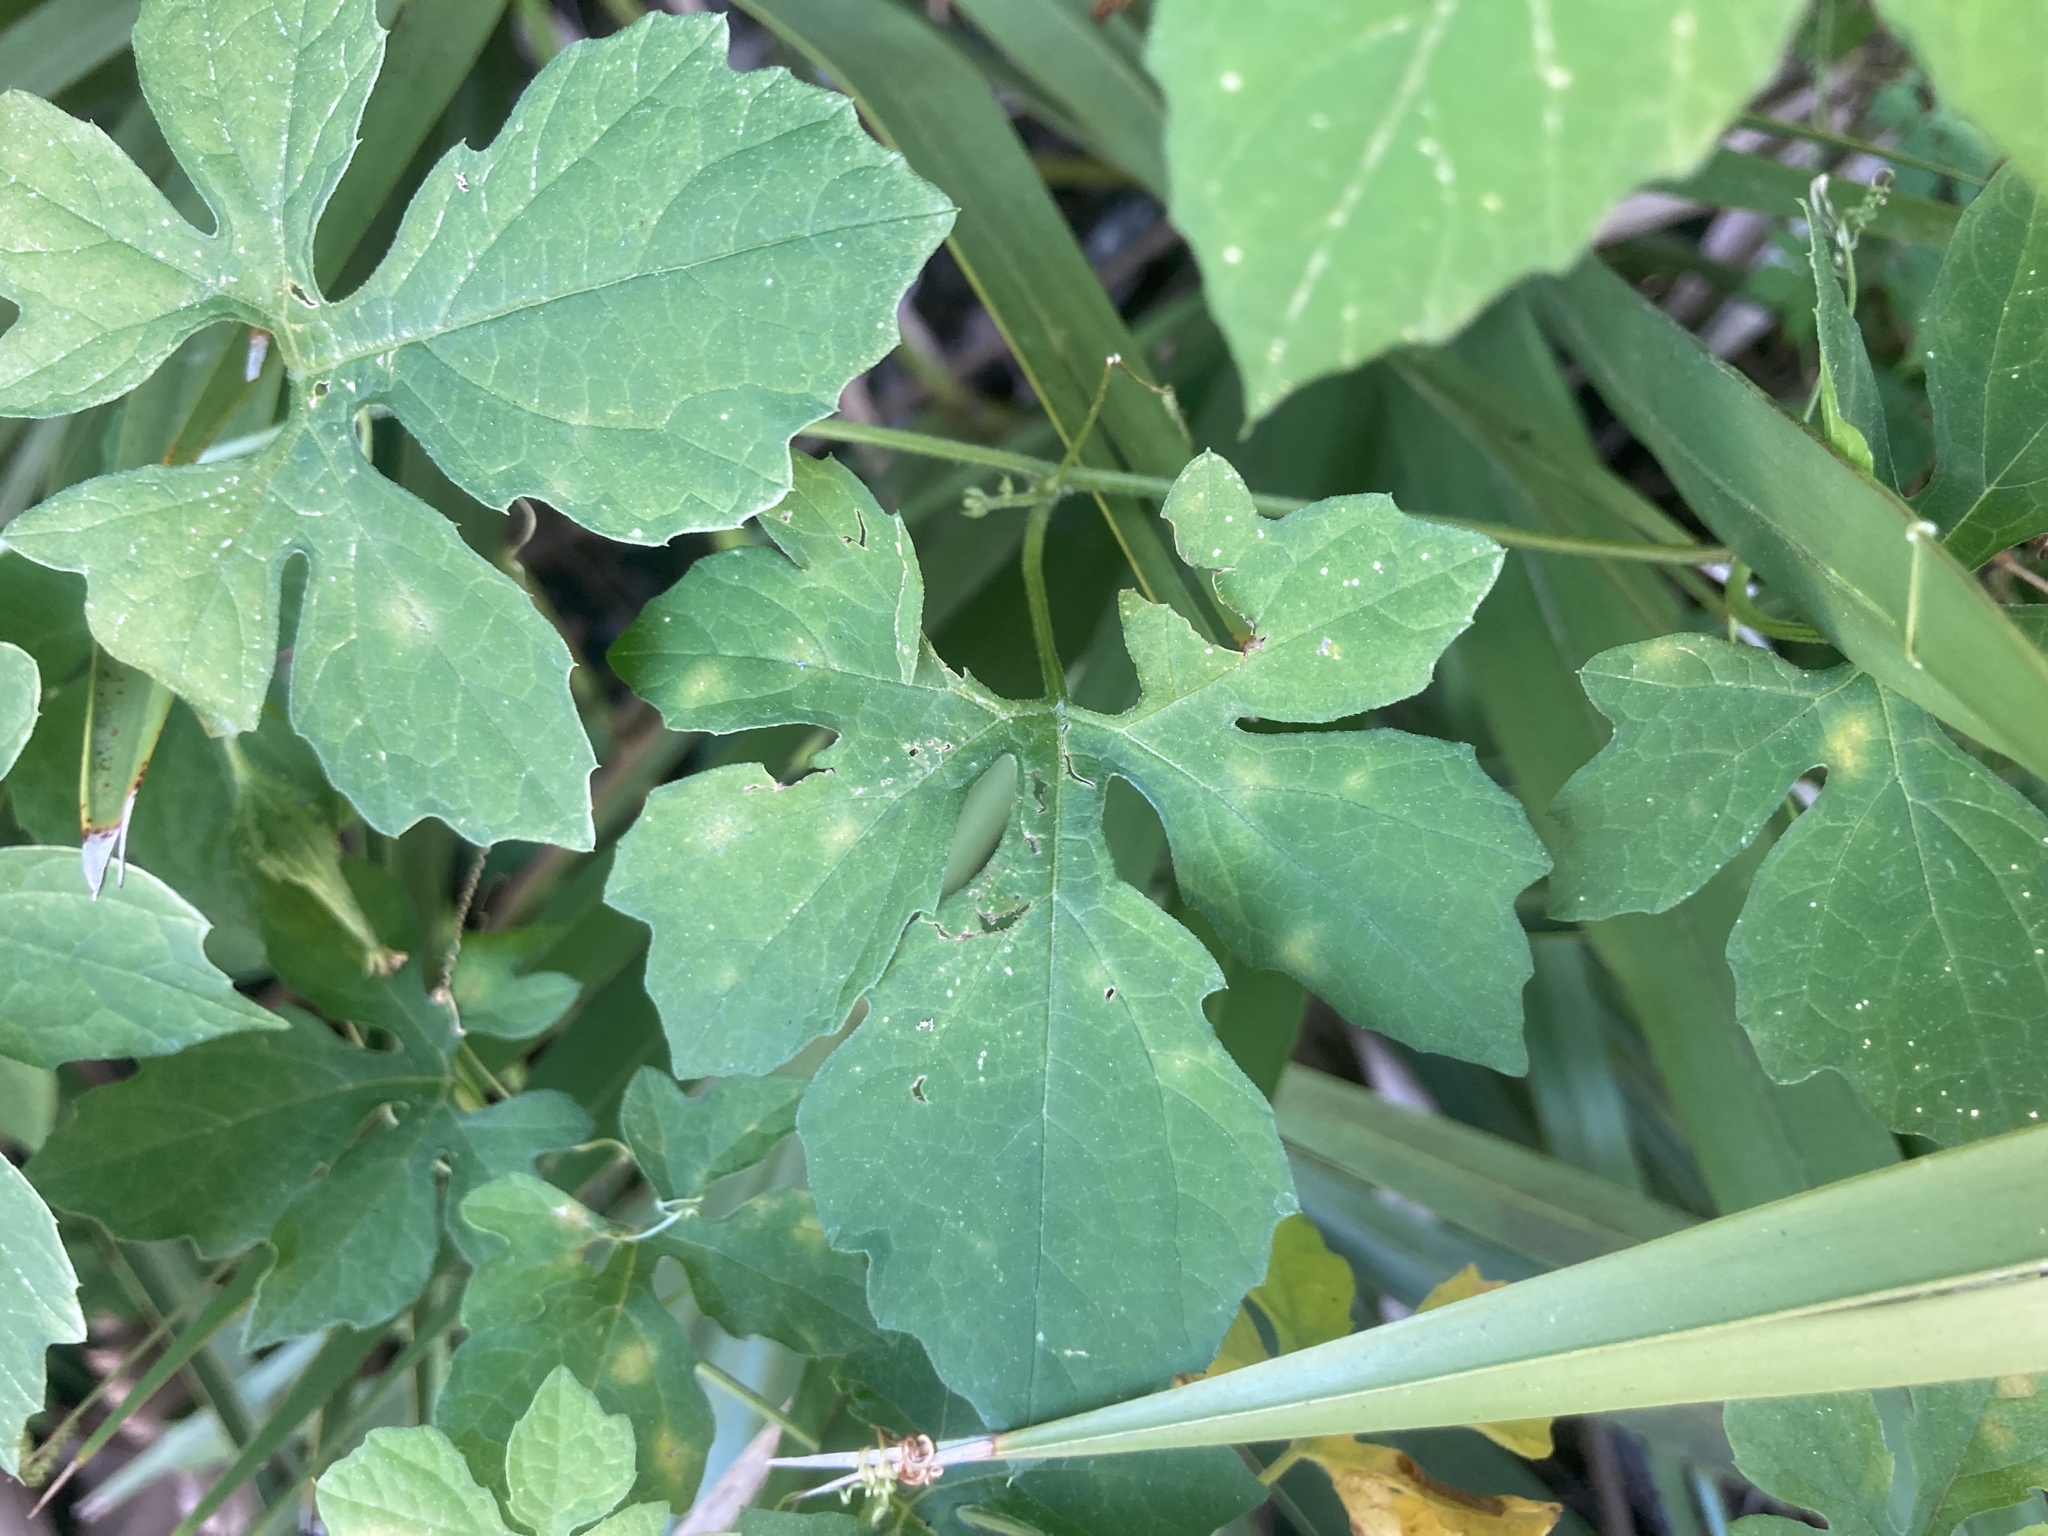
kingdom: Plantae
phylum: Tracheophyta
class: Magnoliopsida
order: Cucurbitales
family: Cucurbitaceae
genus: Momordica
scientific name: Momordica charantia
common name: Balsampear
